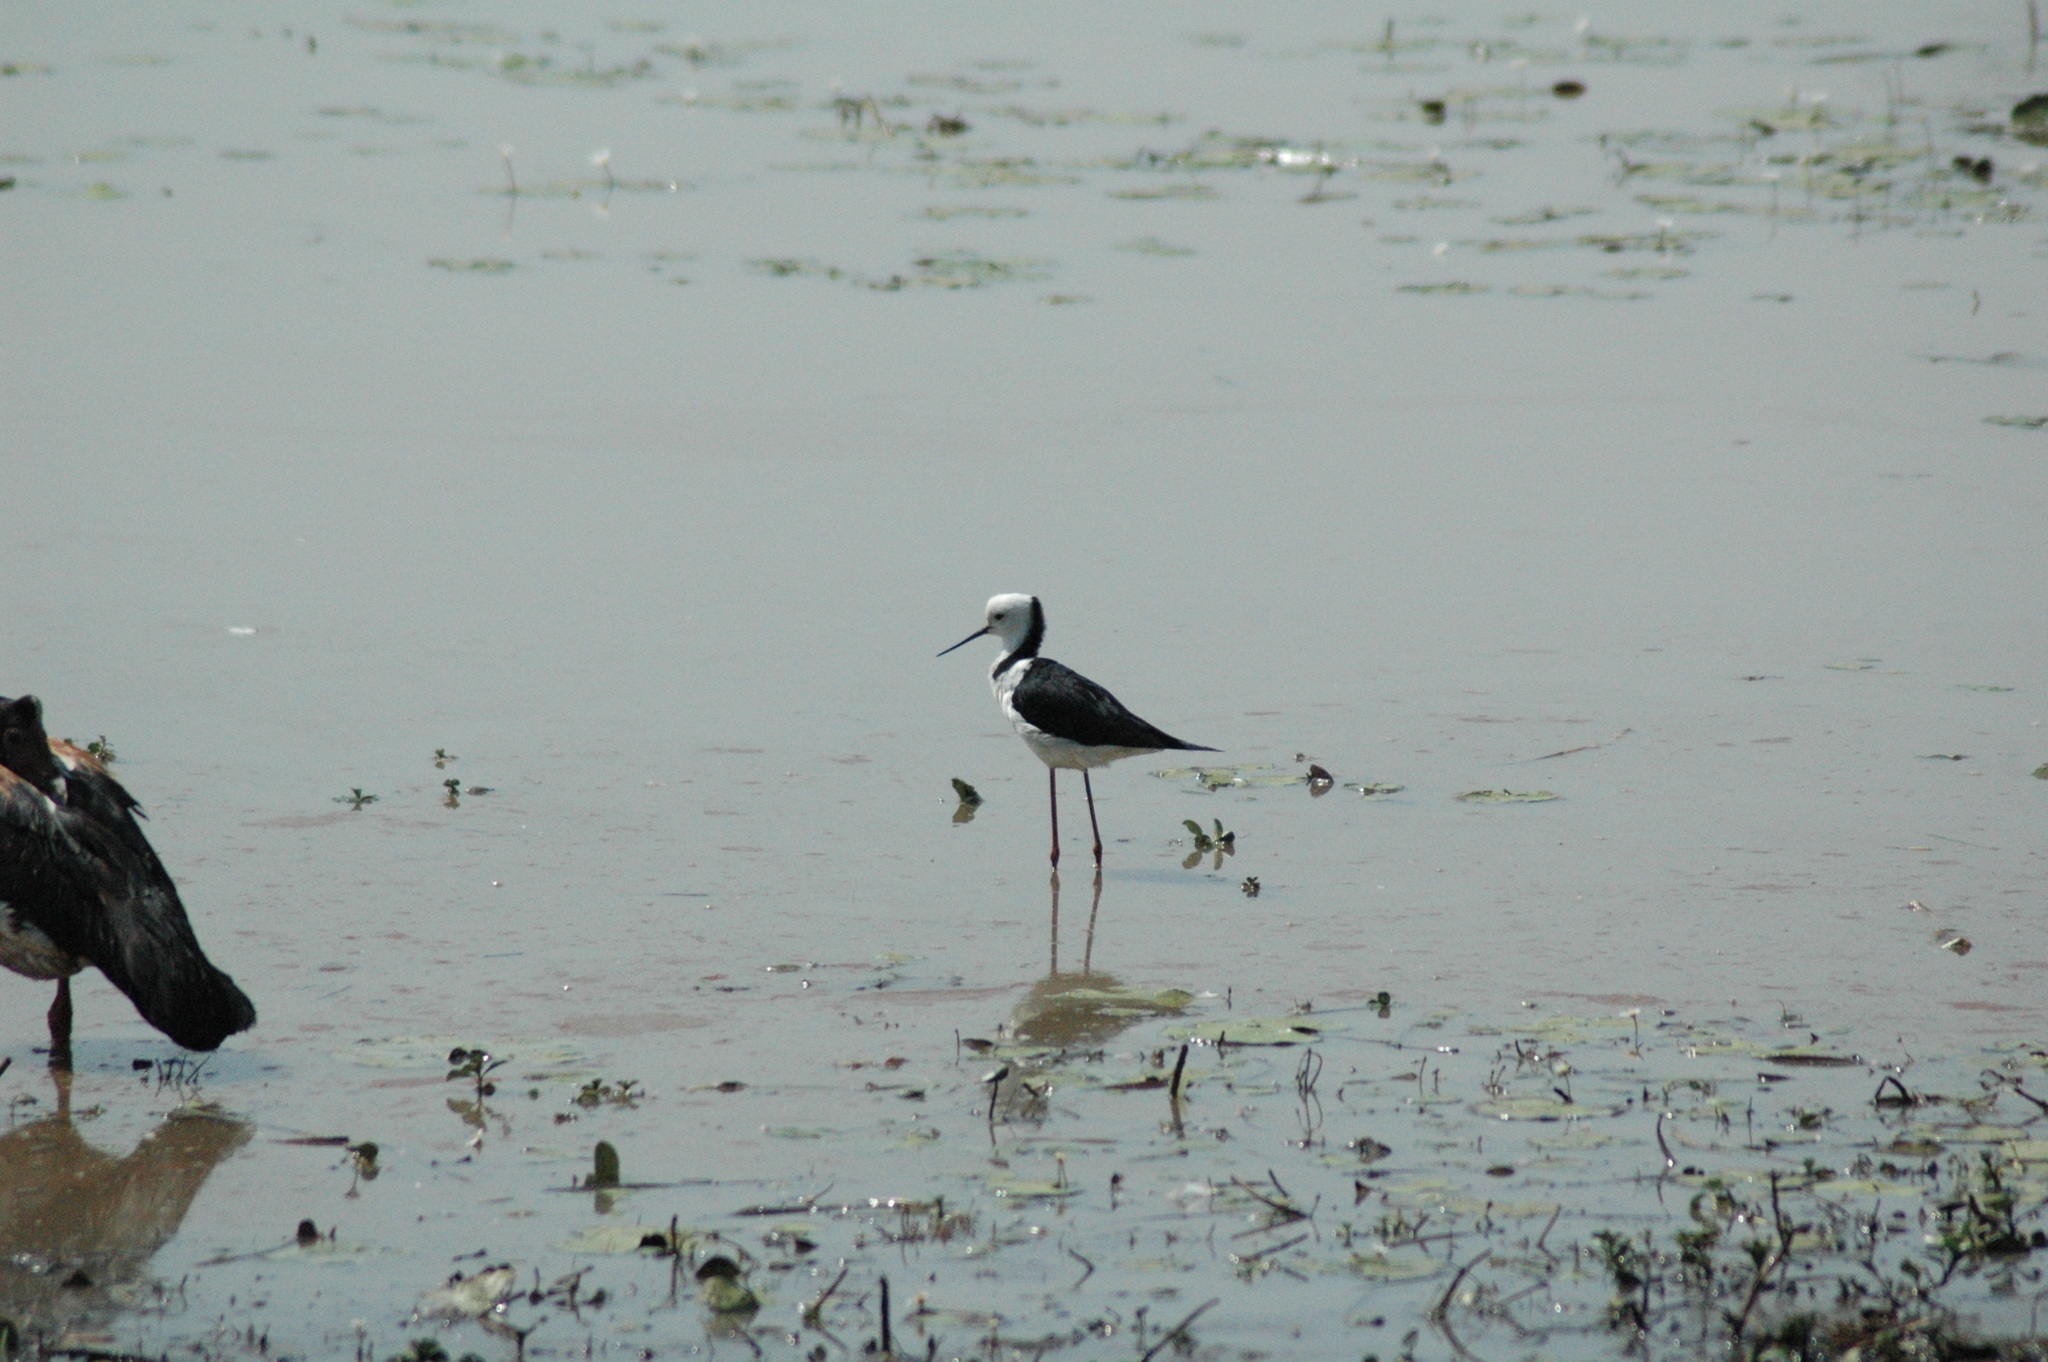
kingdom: Animalia
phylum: Chordata
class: Aves
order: Charadriiformes
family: Recurvirostridae
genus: Himantopus
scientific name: Himantopus leucocephalus
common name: White-headed stilt
